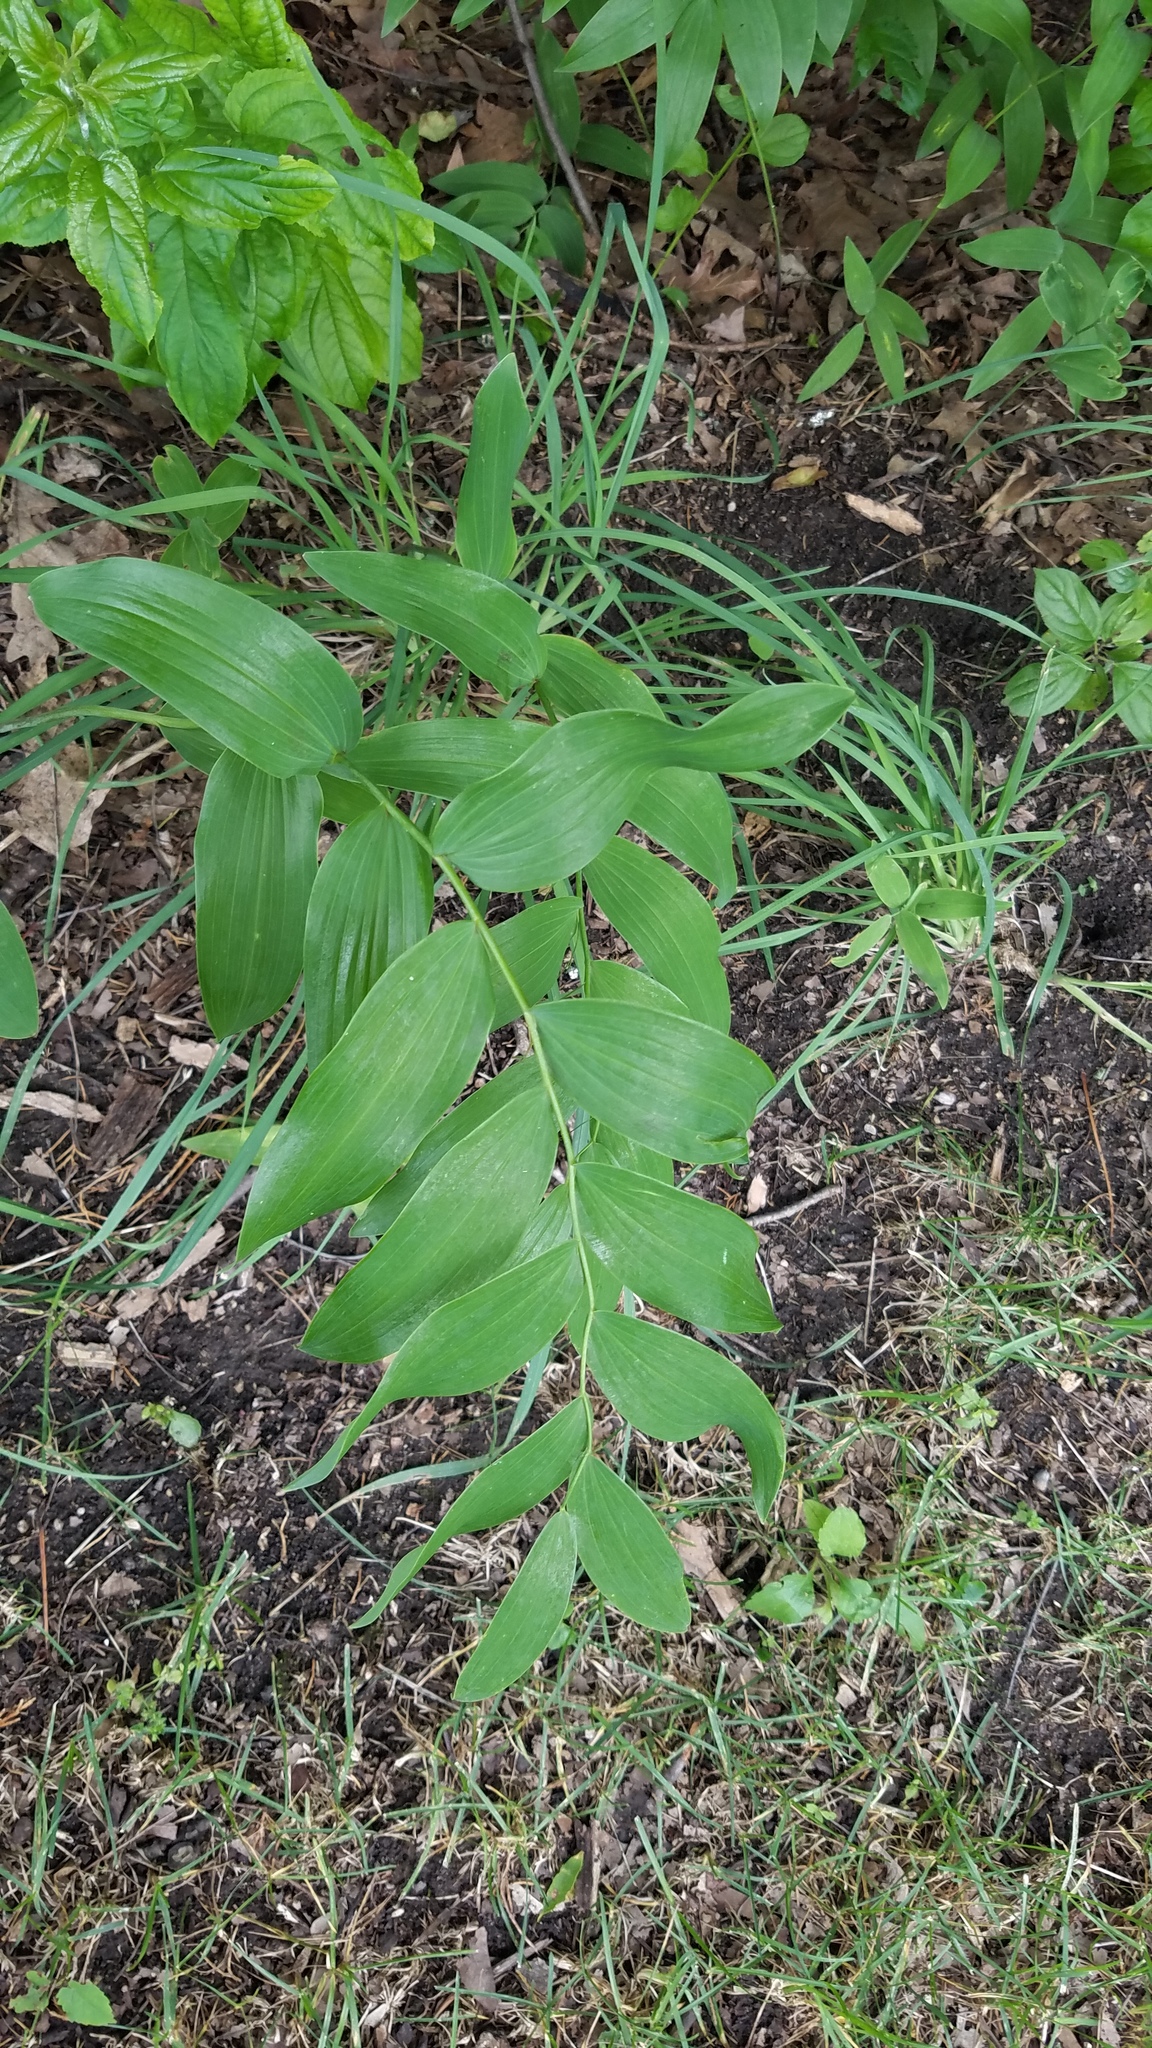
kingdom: Plantae
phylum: Tracheophyta
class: Liliopsida
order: Asparagales
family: Asparagaceae
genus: Polygonatum
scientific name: Polygonatum biflorum
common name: American solomon's-seal
